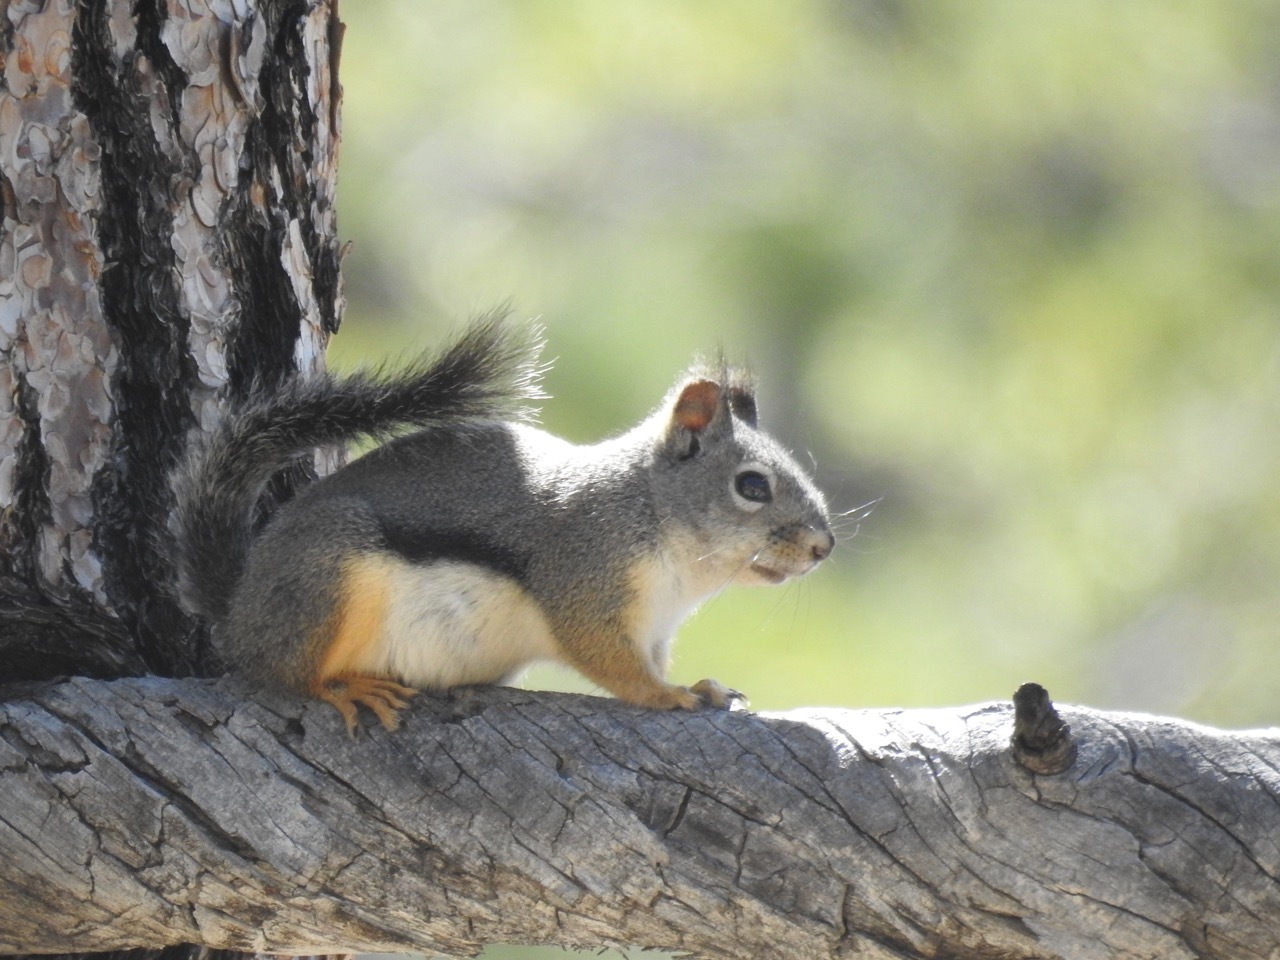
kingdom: Animalia
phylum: Chordata
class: Mammalia
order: Rodentia
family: Sciuridae
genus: Tamiasciurus
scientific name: Tamiasciurus douglasii
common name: Douglas's squirrel
